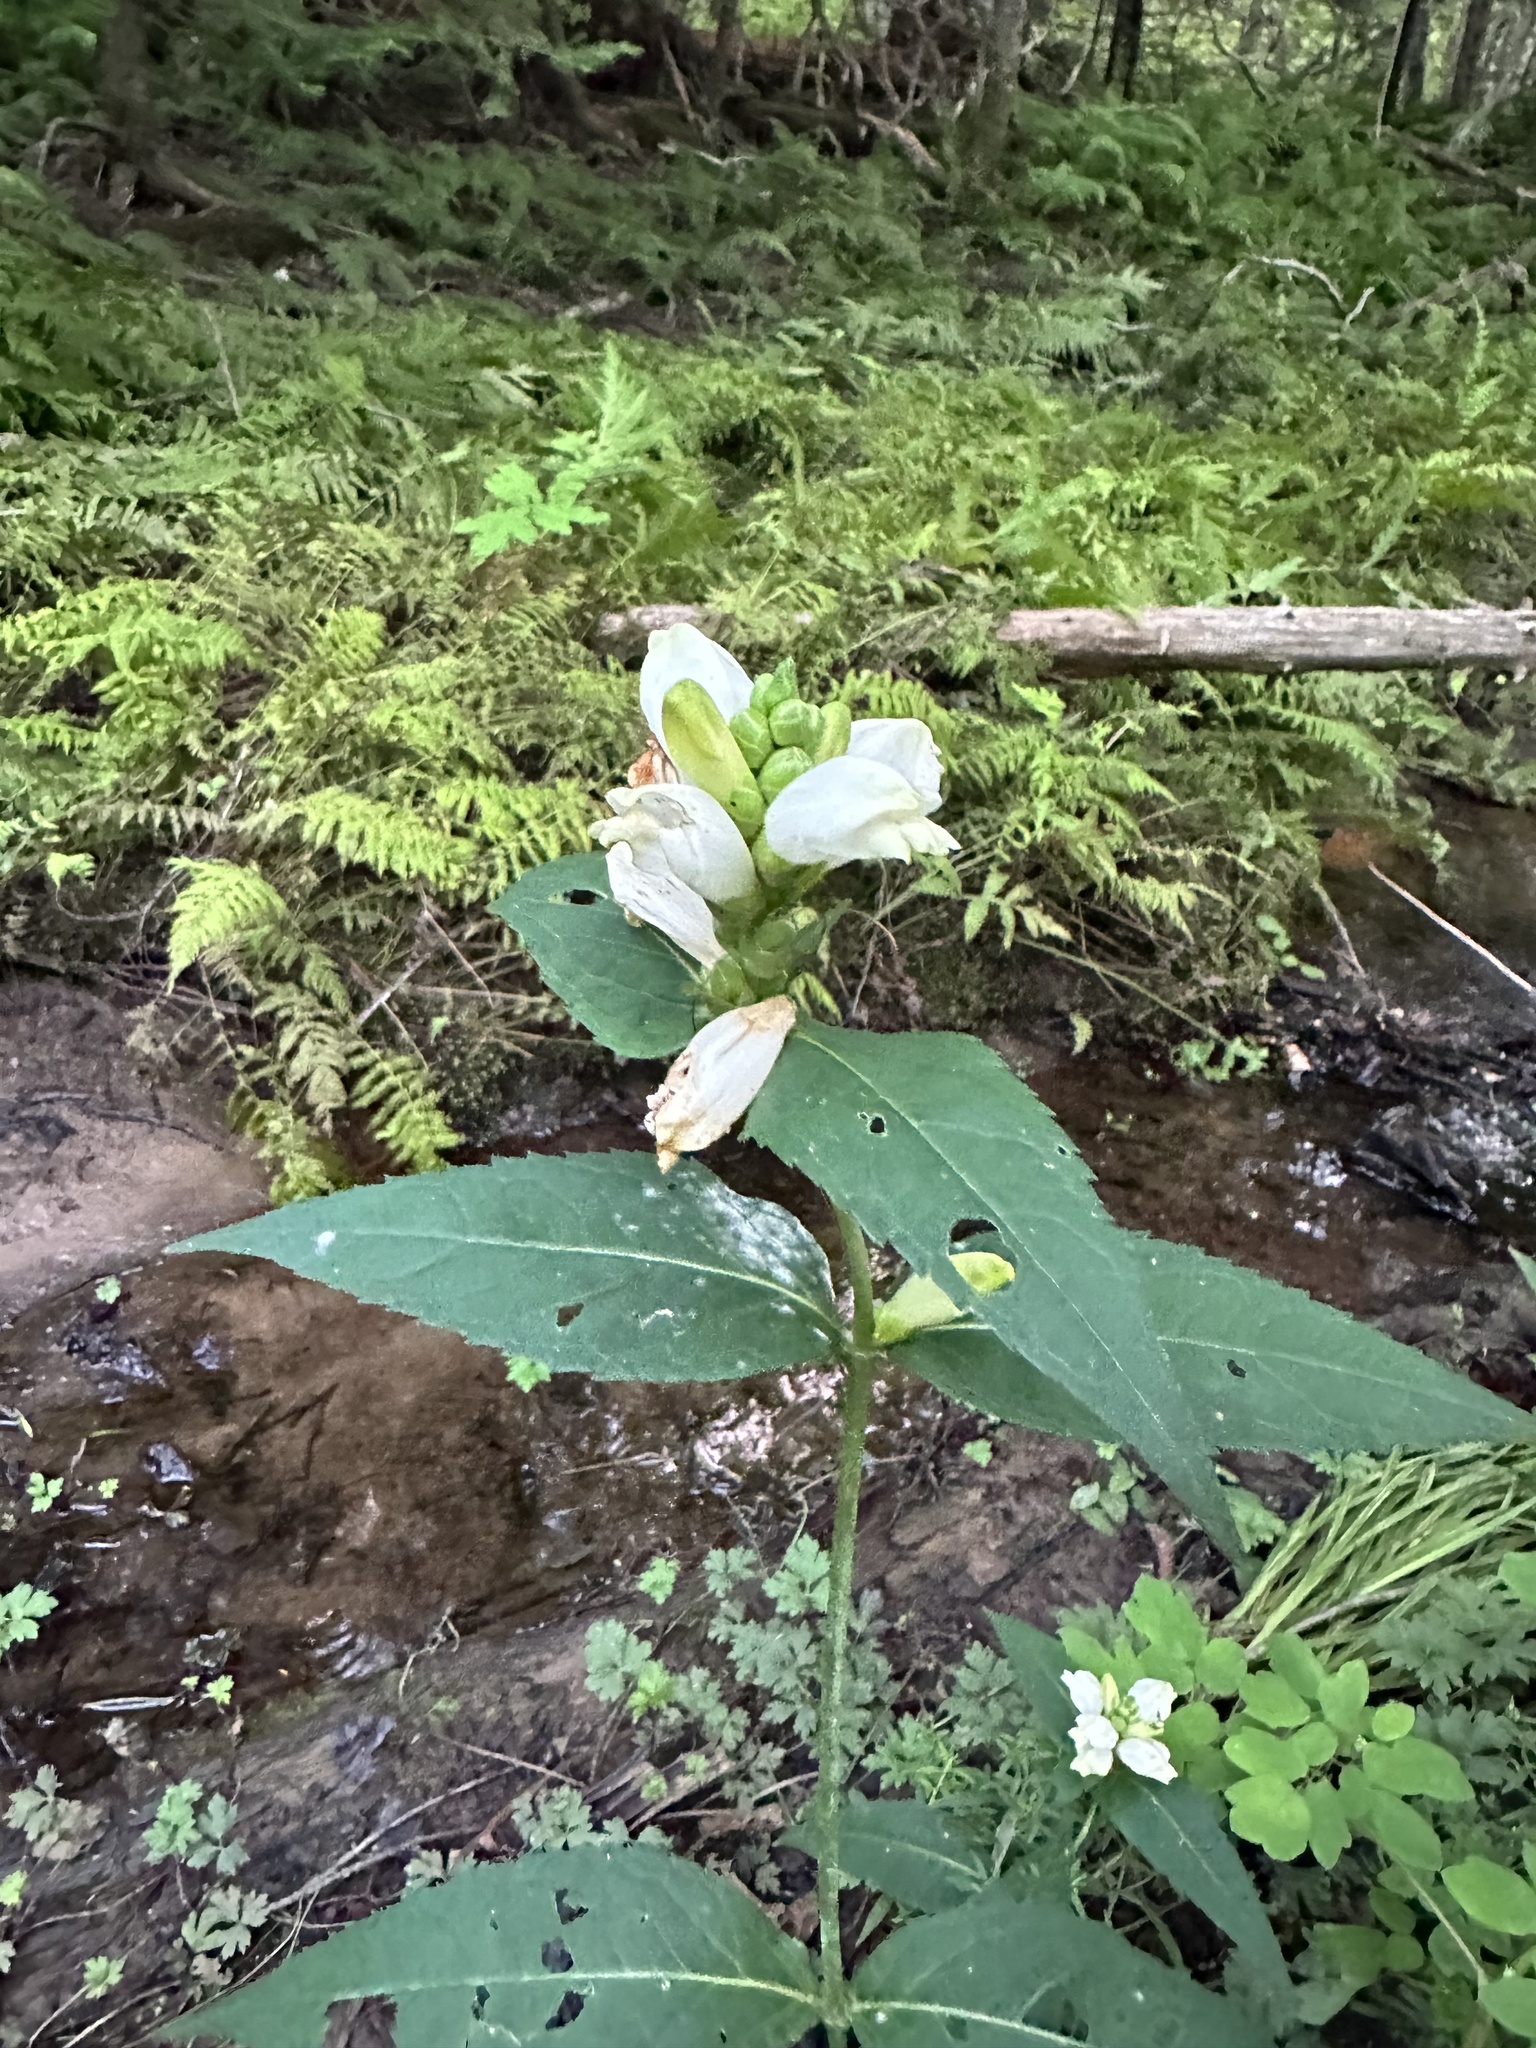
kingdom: Plantae
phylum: Tracheophyta
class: Magnoliopsida
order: Lamiales
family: Plantaginaceae
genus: Chelone
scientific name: Chelone glabra
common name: Snakehead
